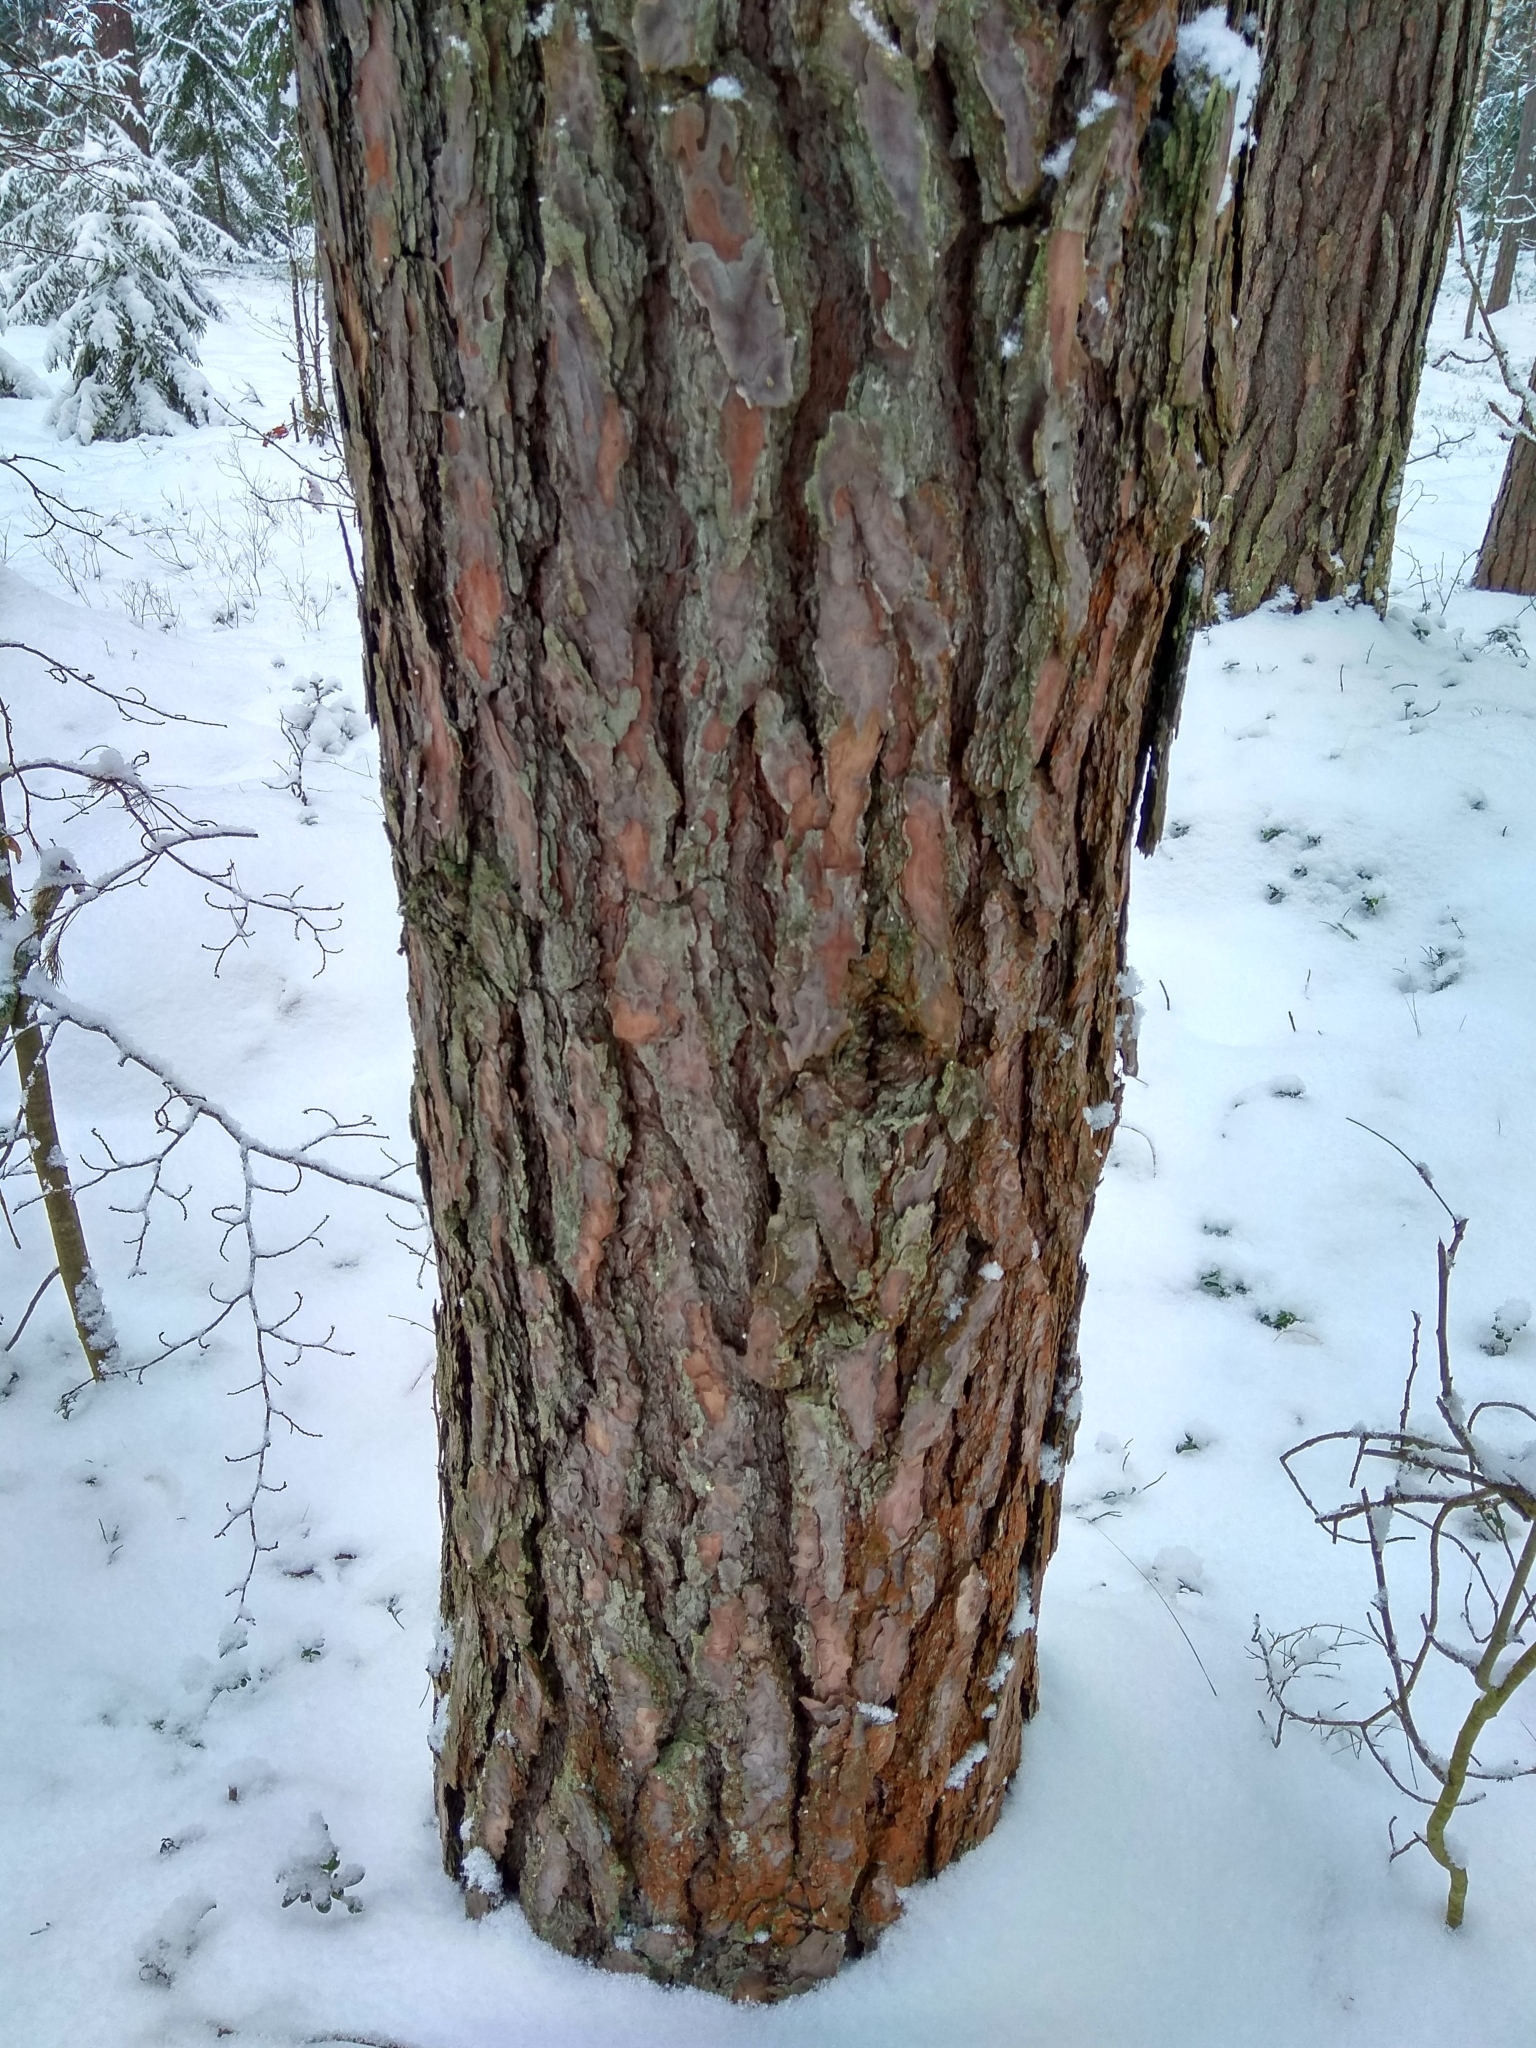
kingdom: Plantae
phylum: Tracheophyta
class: Pinopsida
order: Pinales
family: Pinaceae
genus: Pinus
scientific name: Pinus sylvestris
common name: Scots pine
